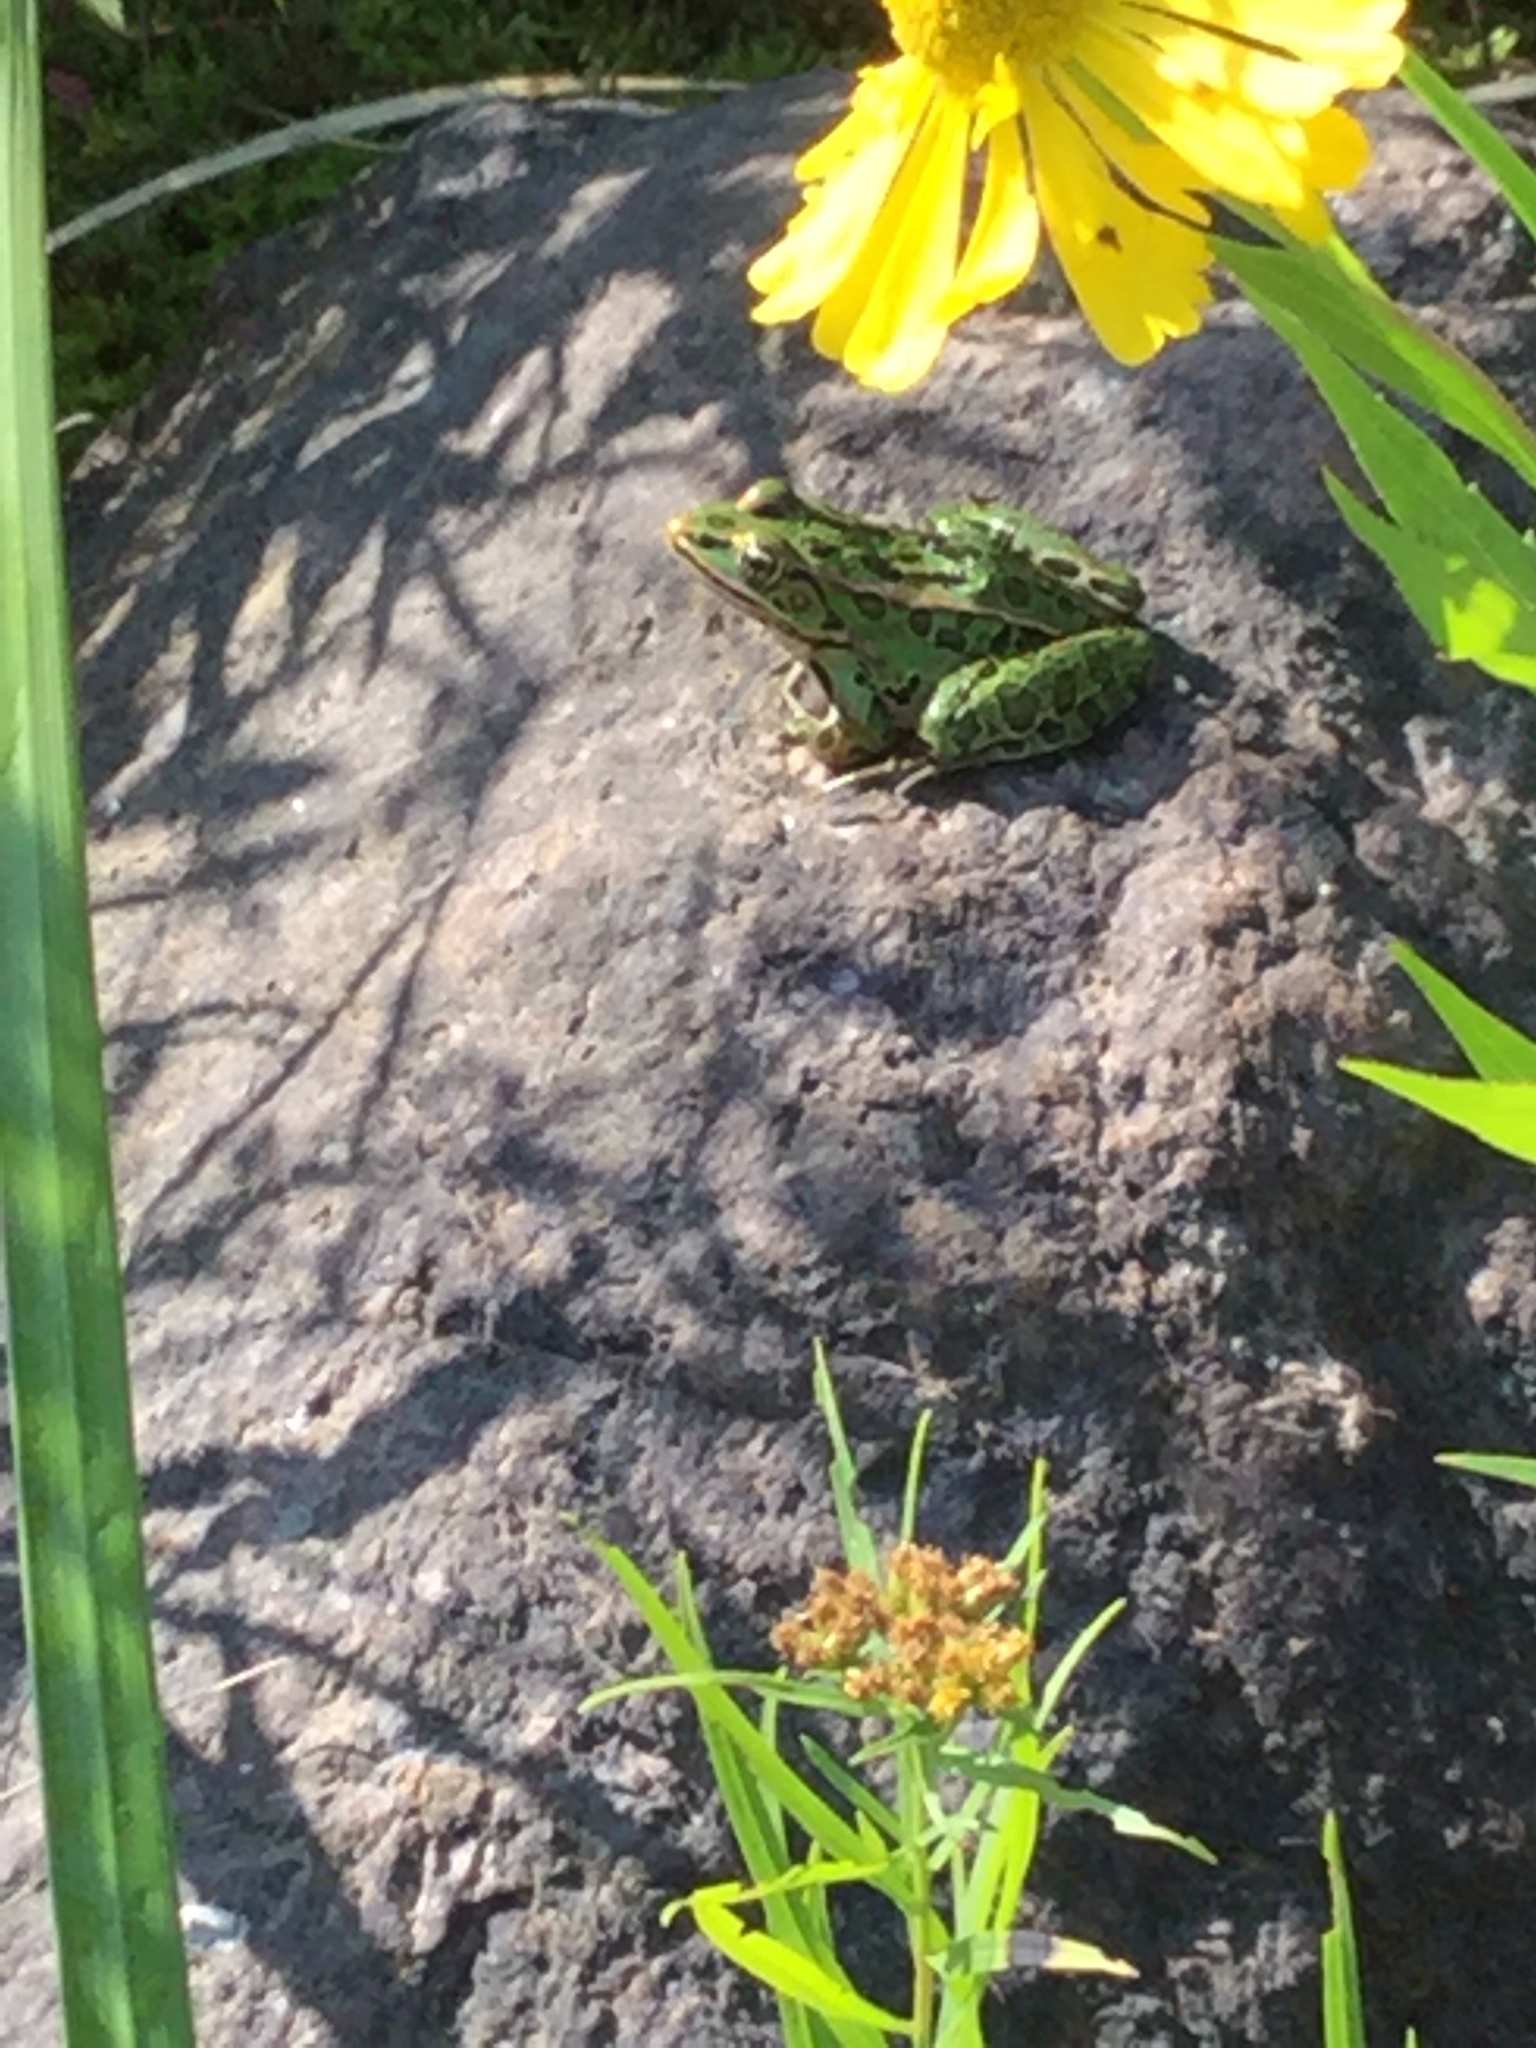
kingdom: Animalia
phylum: Chordata
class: Amphibia
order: Anura
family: Ranidae
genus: Lithobates
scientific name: Lithobates pipiens
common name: Northern leopard frog
